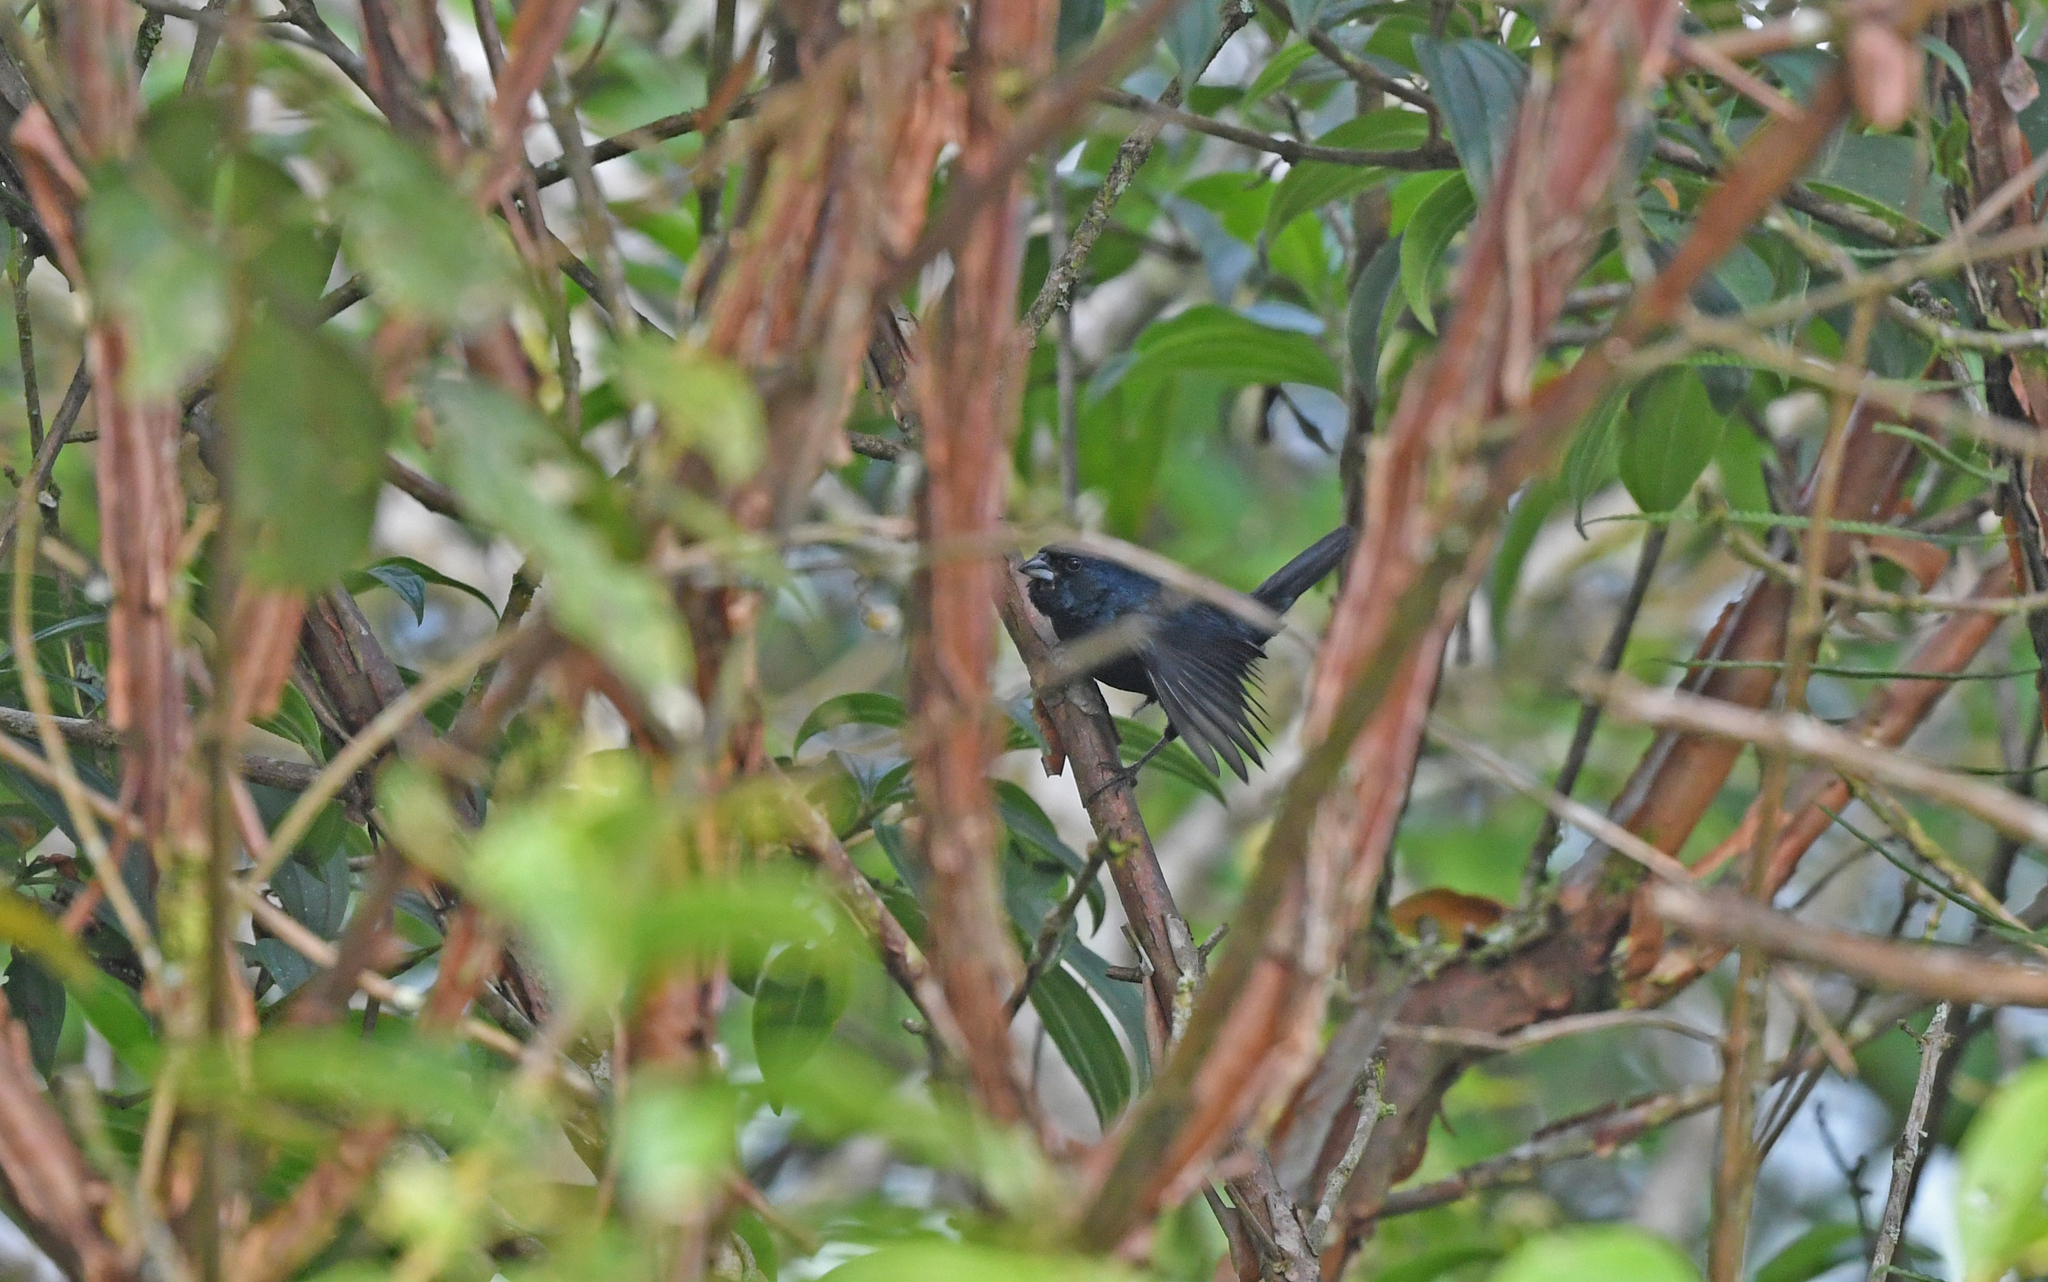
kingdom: Animalia
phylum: Chordata
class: Aves
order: Passeriformes
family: Thraupidae
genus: Volatinia
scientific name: Volatinia jacarina
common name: Blue-black grassquit
